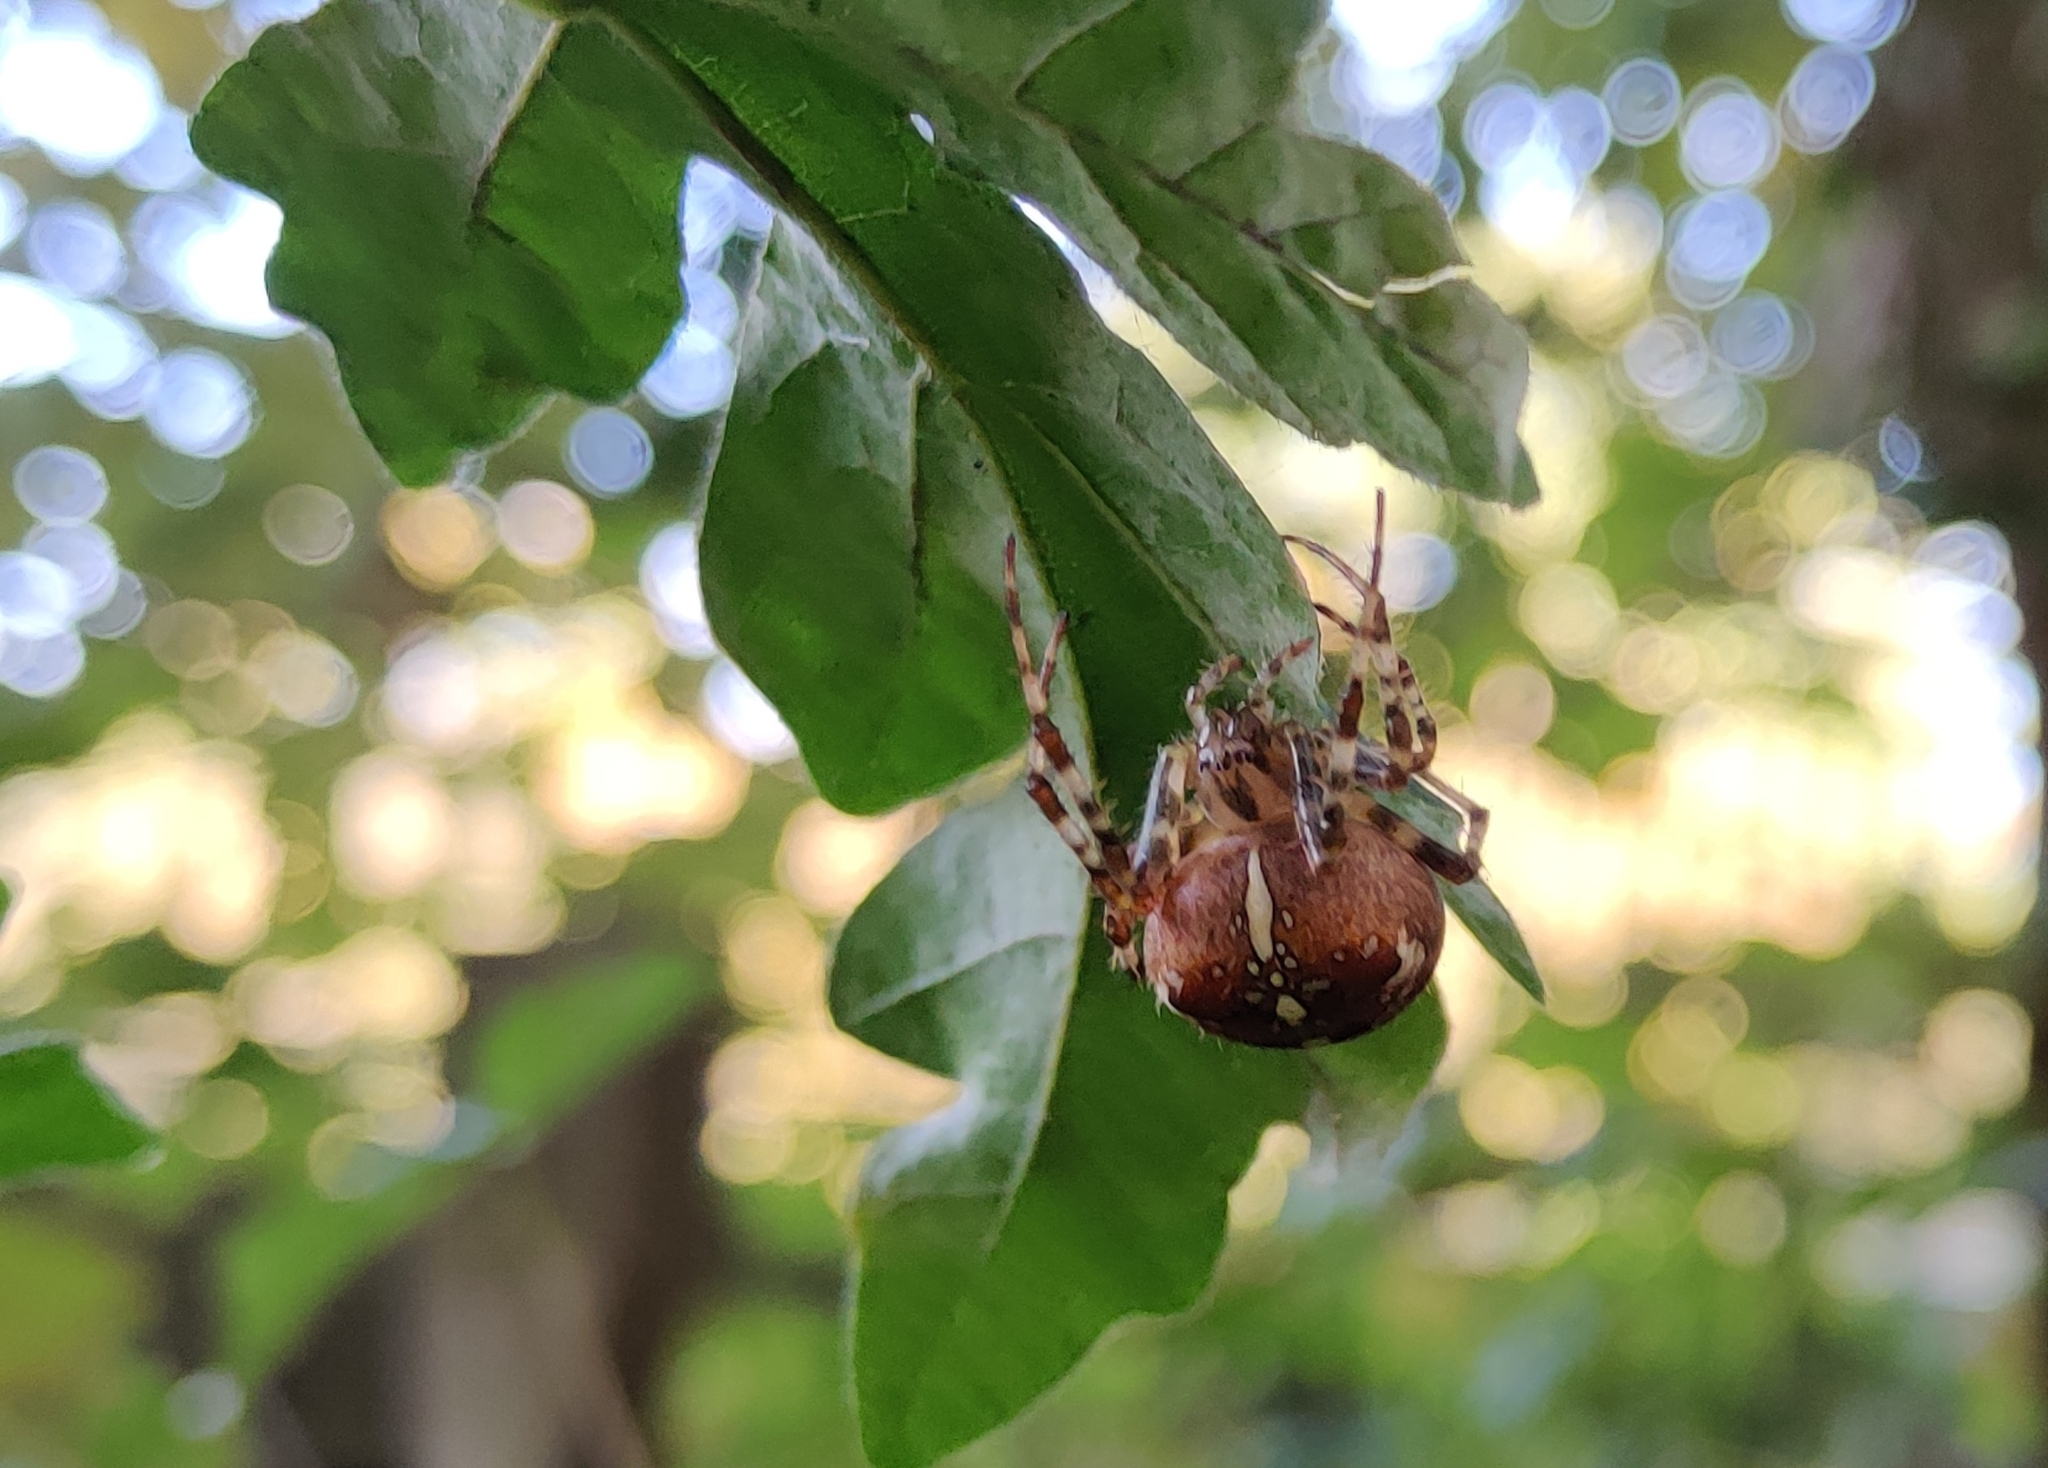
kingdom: Animalia
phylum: Arthropoda
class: Arachnida
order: Araneae
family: Araneidae
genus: Araneus
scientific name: Araneus diadematus
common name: Cross orbweaver
